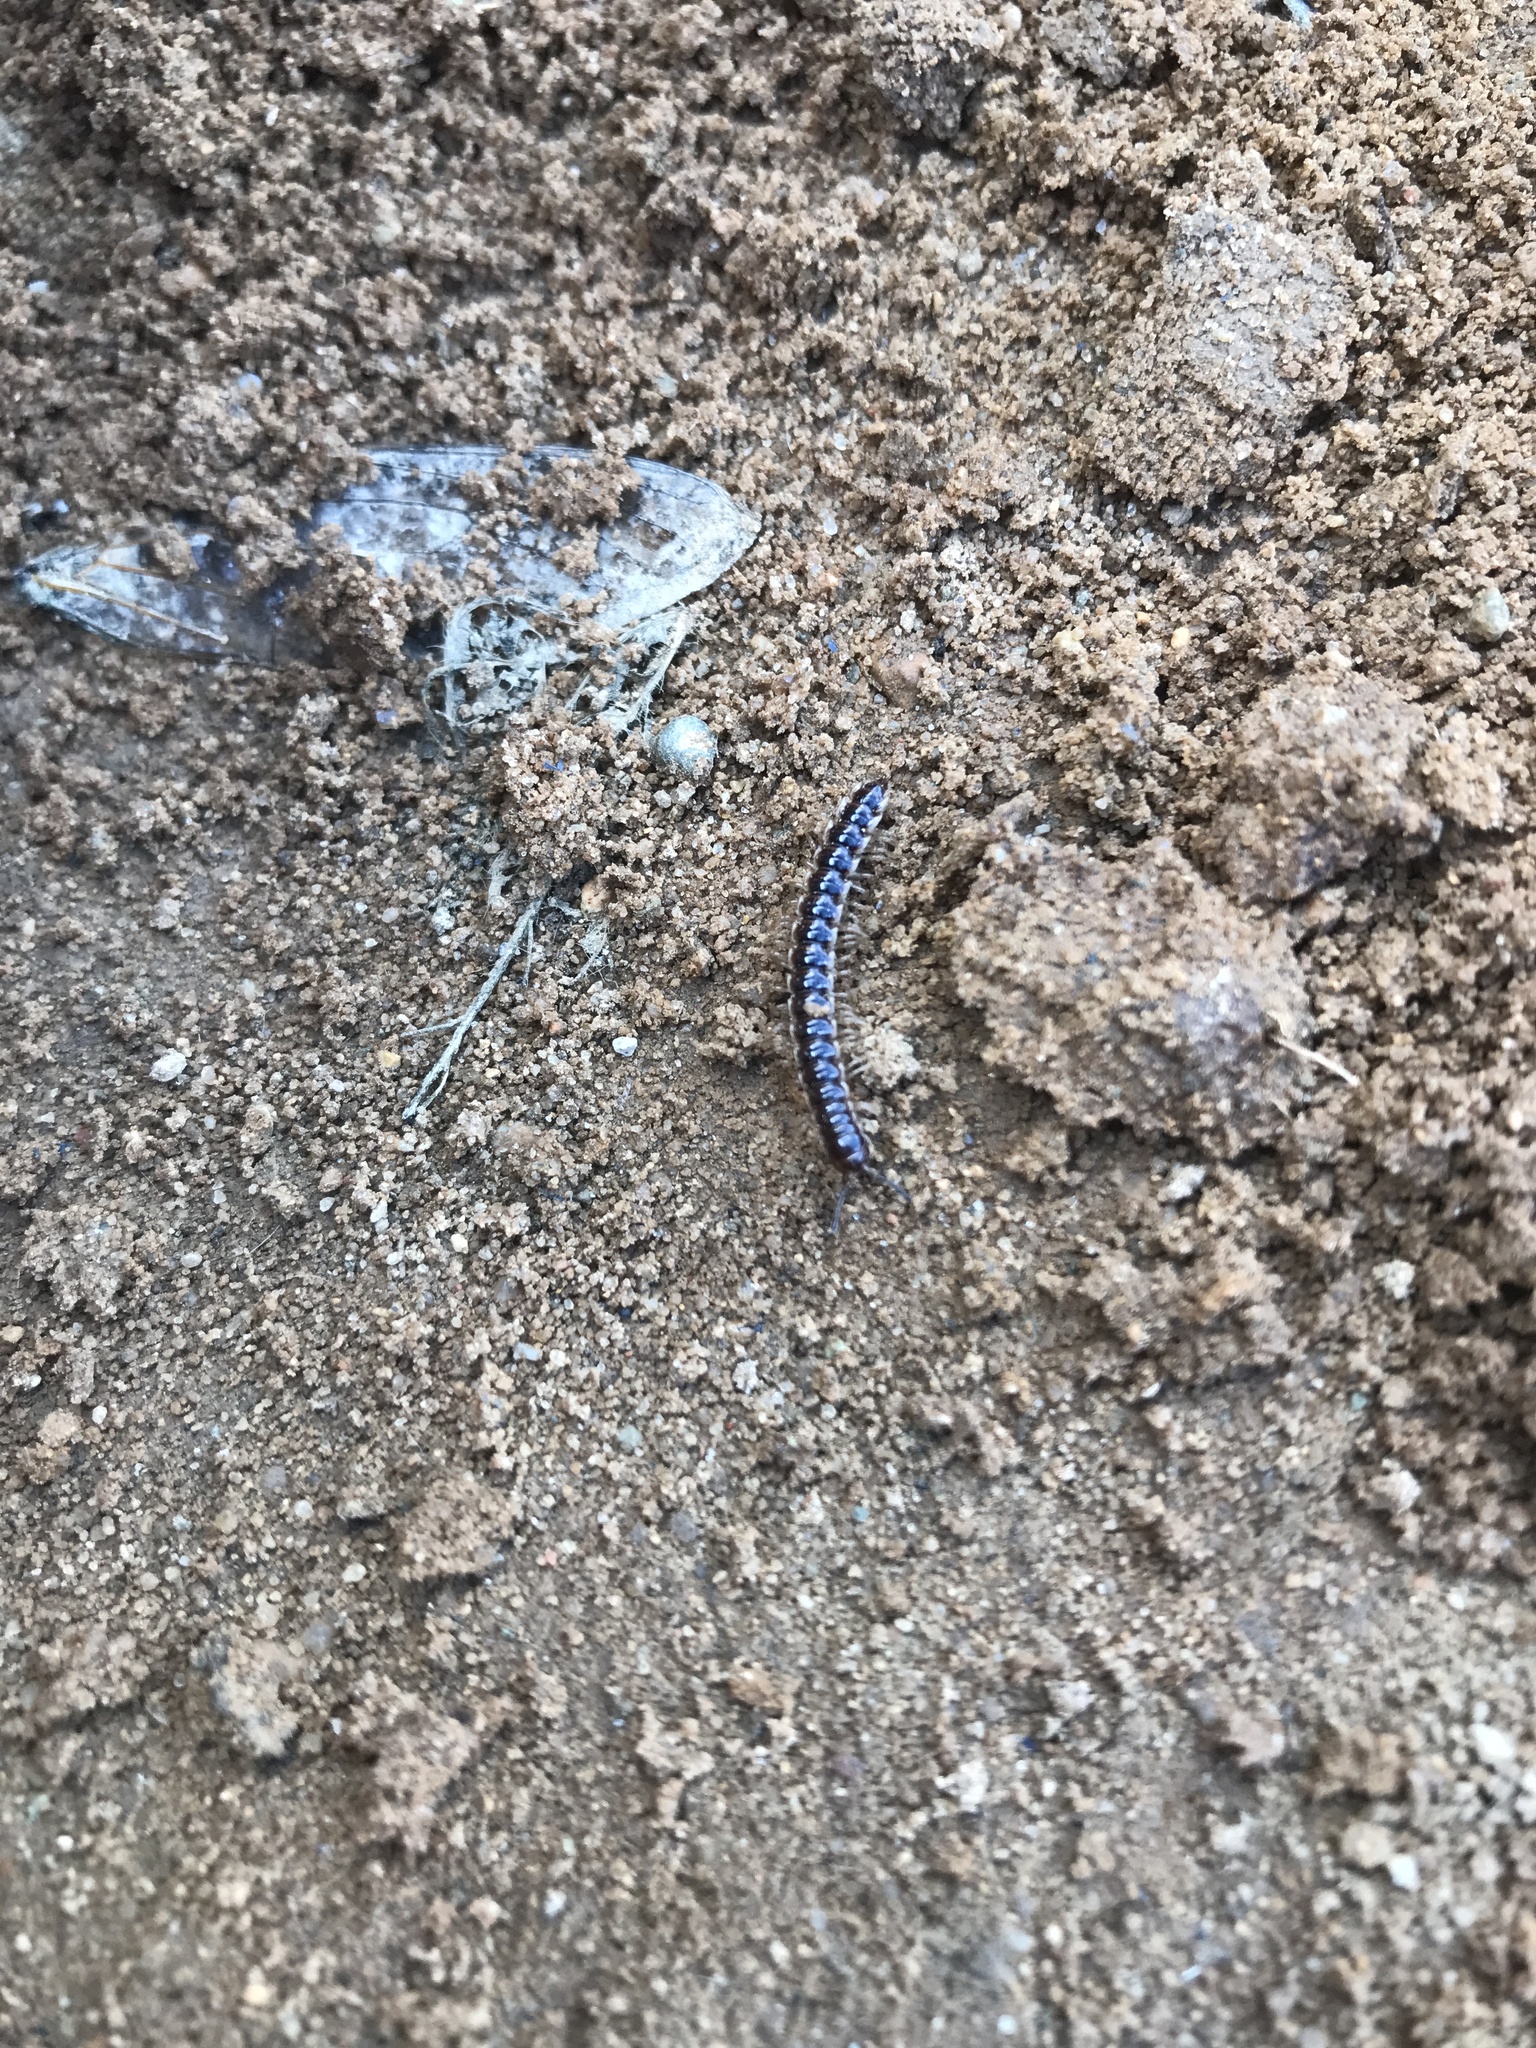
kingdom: Animalia
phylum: Arthropoda
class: Diplopoda
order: Polydesmida
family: Paradoxosomatidae
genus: Oxidus
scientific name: Oxidus gracilis
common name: Greenhouse millipede
